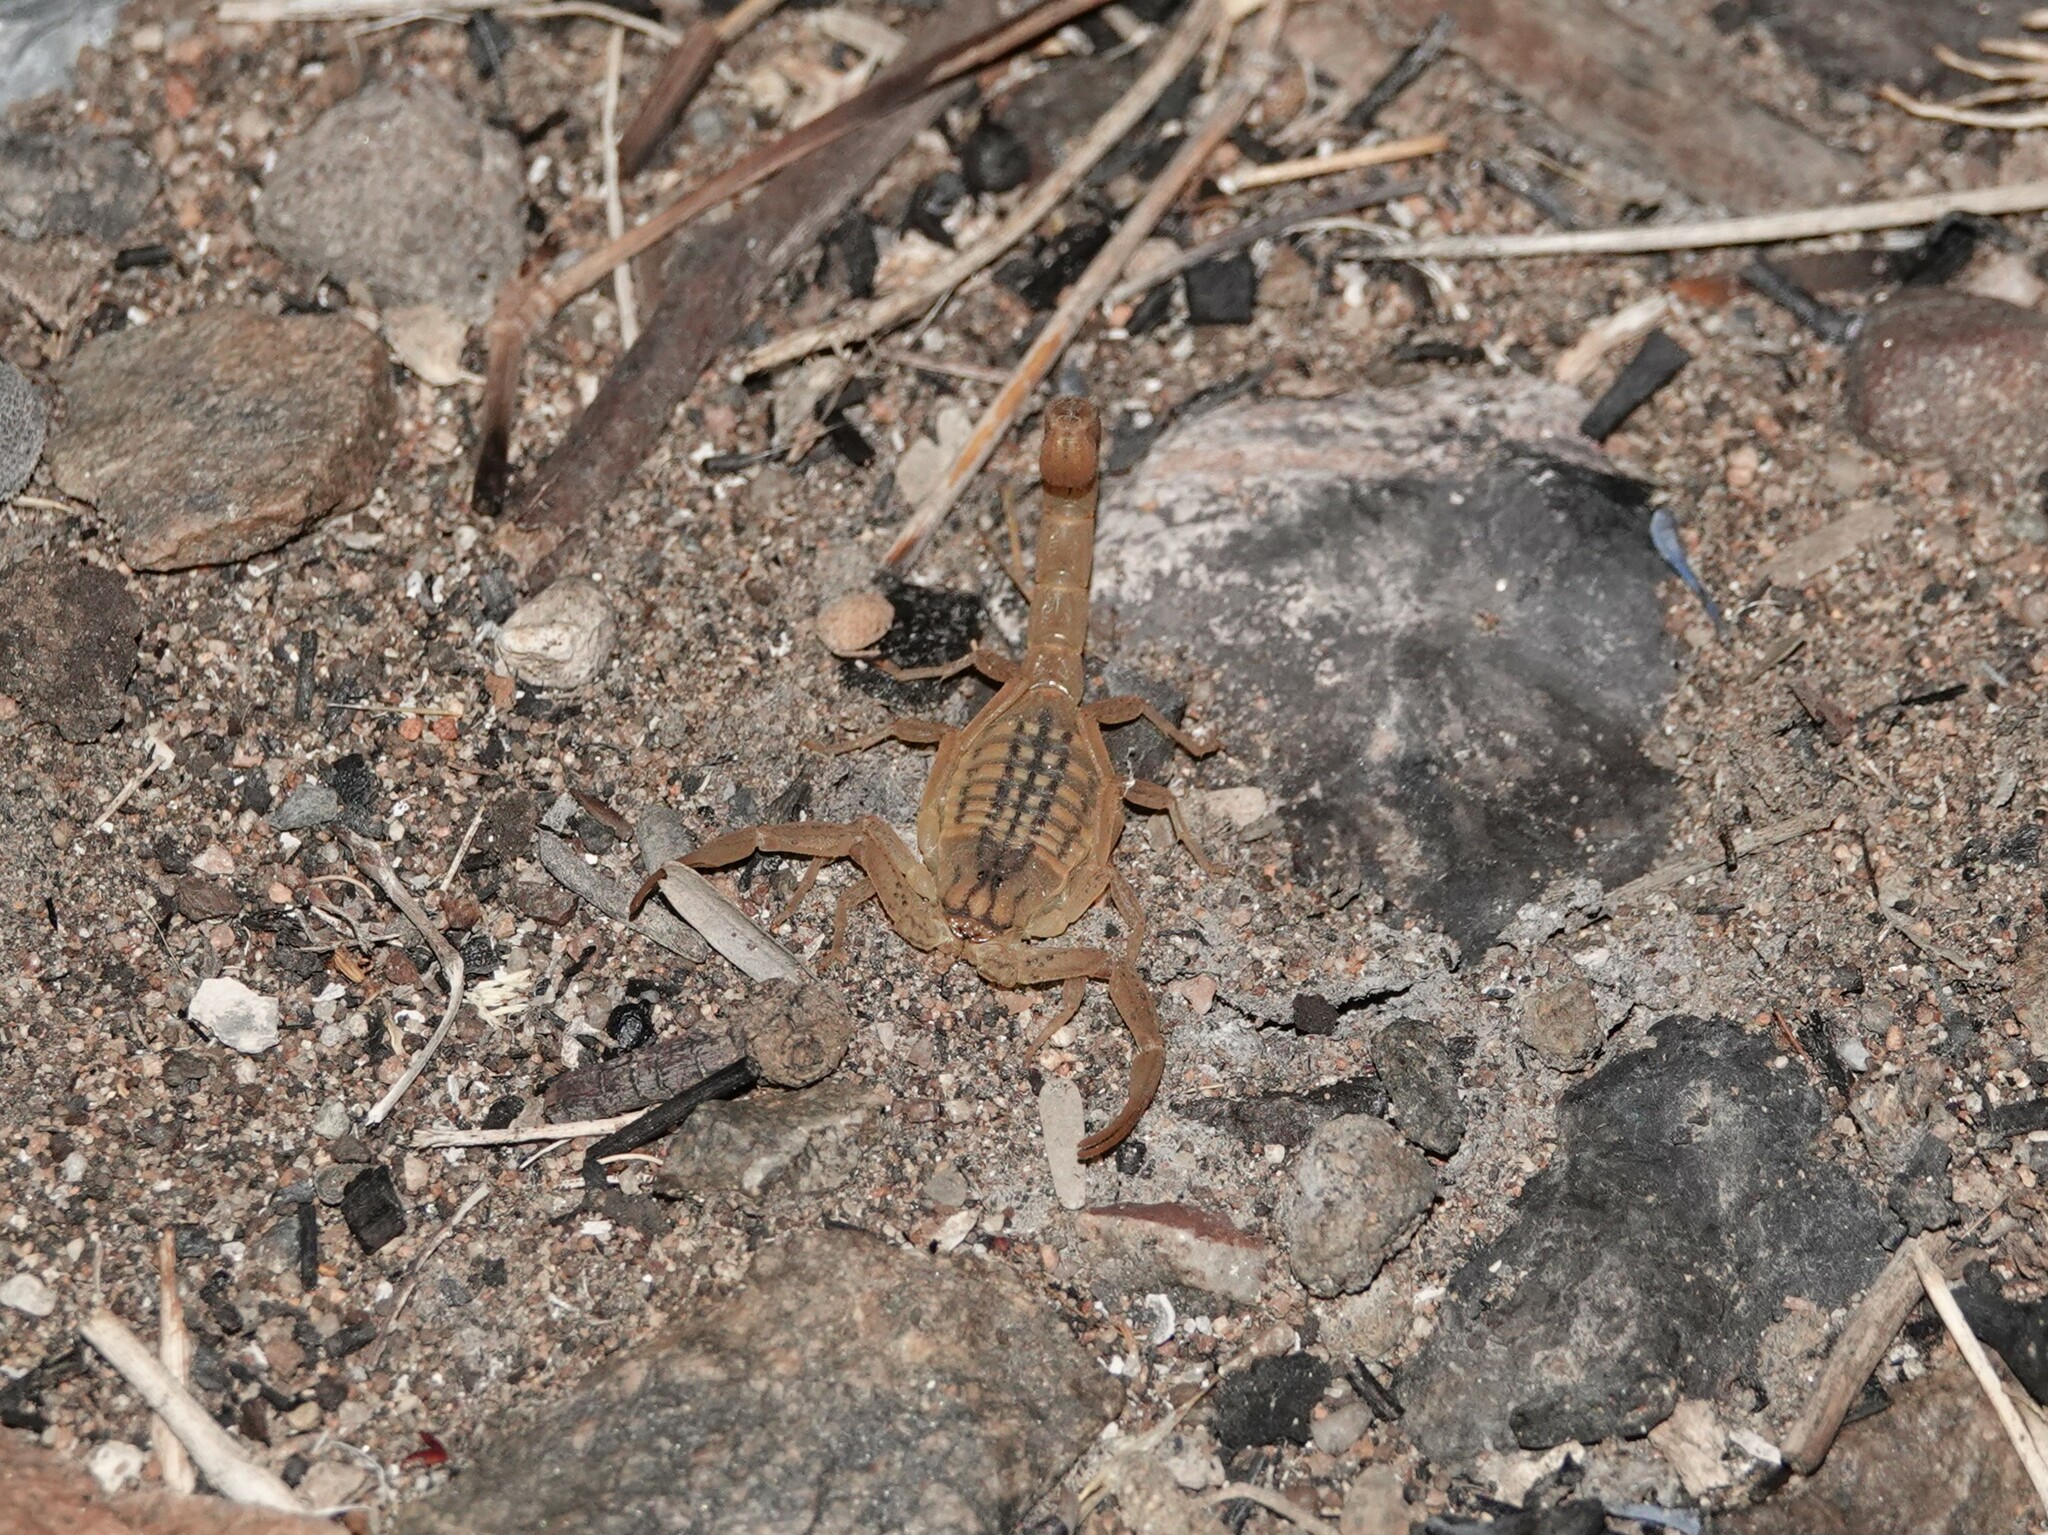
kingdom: Animalia
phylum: Arthropoda
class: Arachnida
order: Scorpiones
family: Buthidae
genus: Hottentotta
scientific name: Hottentotta conspersus
